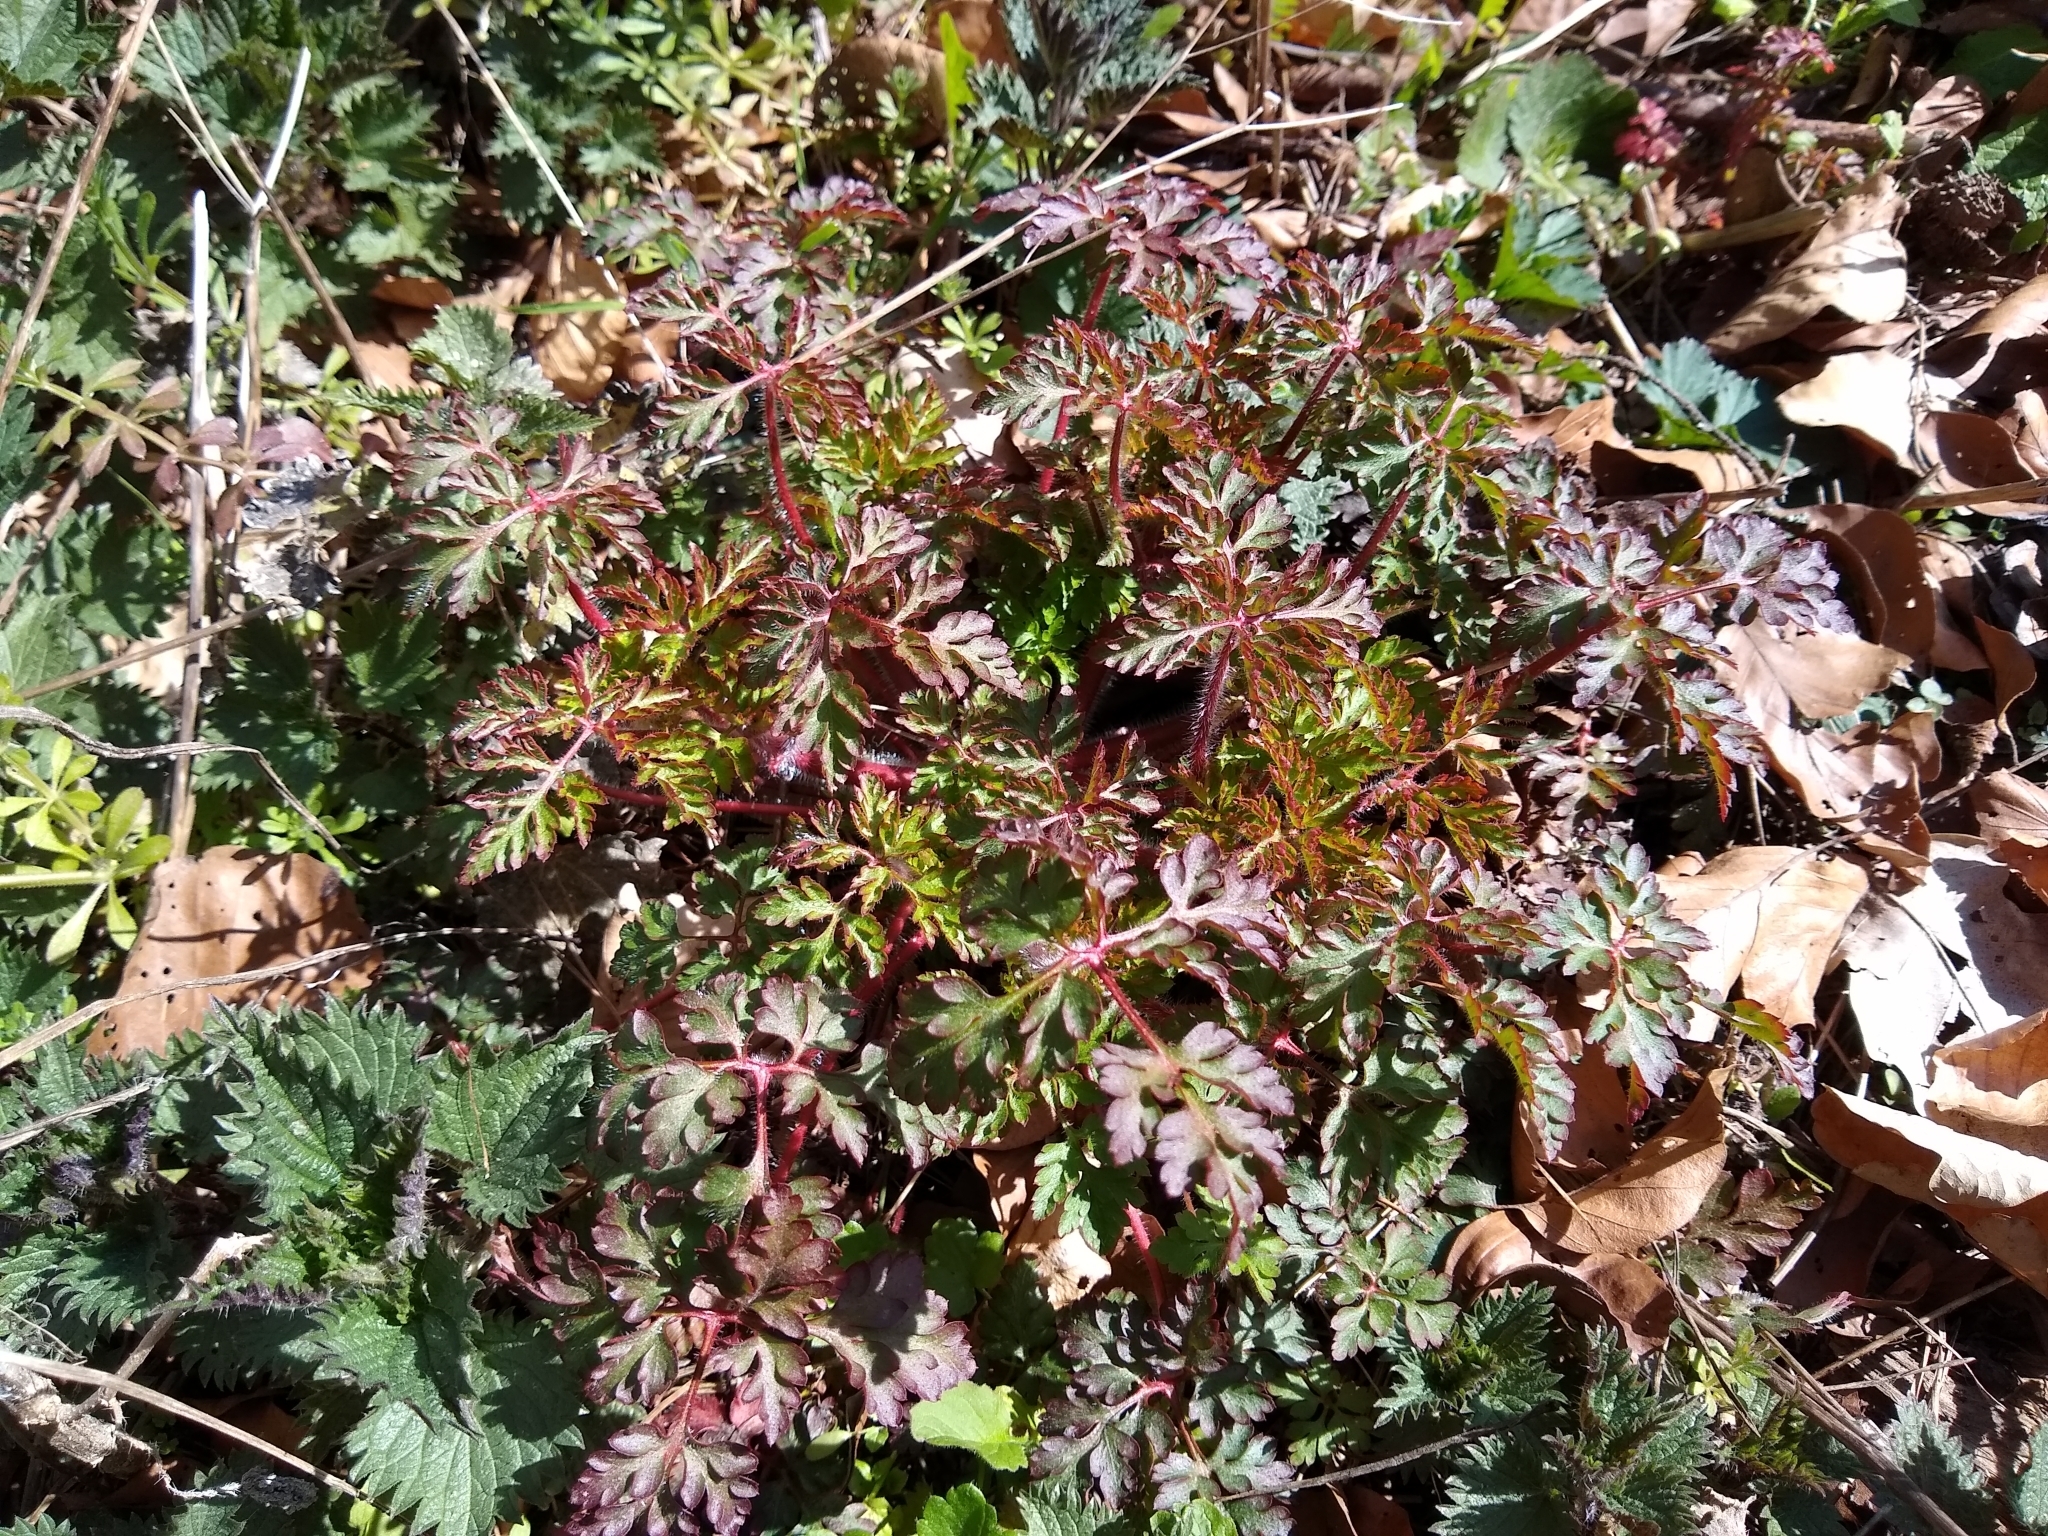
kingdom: Plantae
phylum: Tracheophyta
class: Magnoliopsida
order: Geraniales
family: Geraniaceae
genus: Geranium
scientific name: Geranium robertianum
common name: Herb-robert
